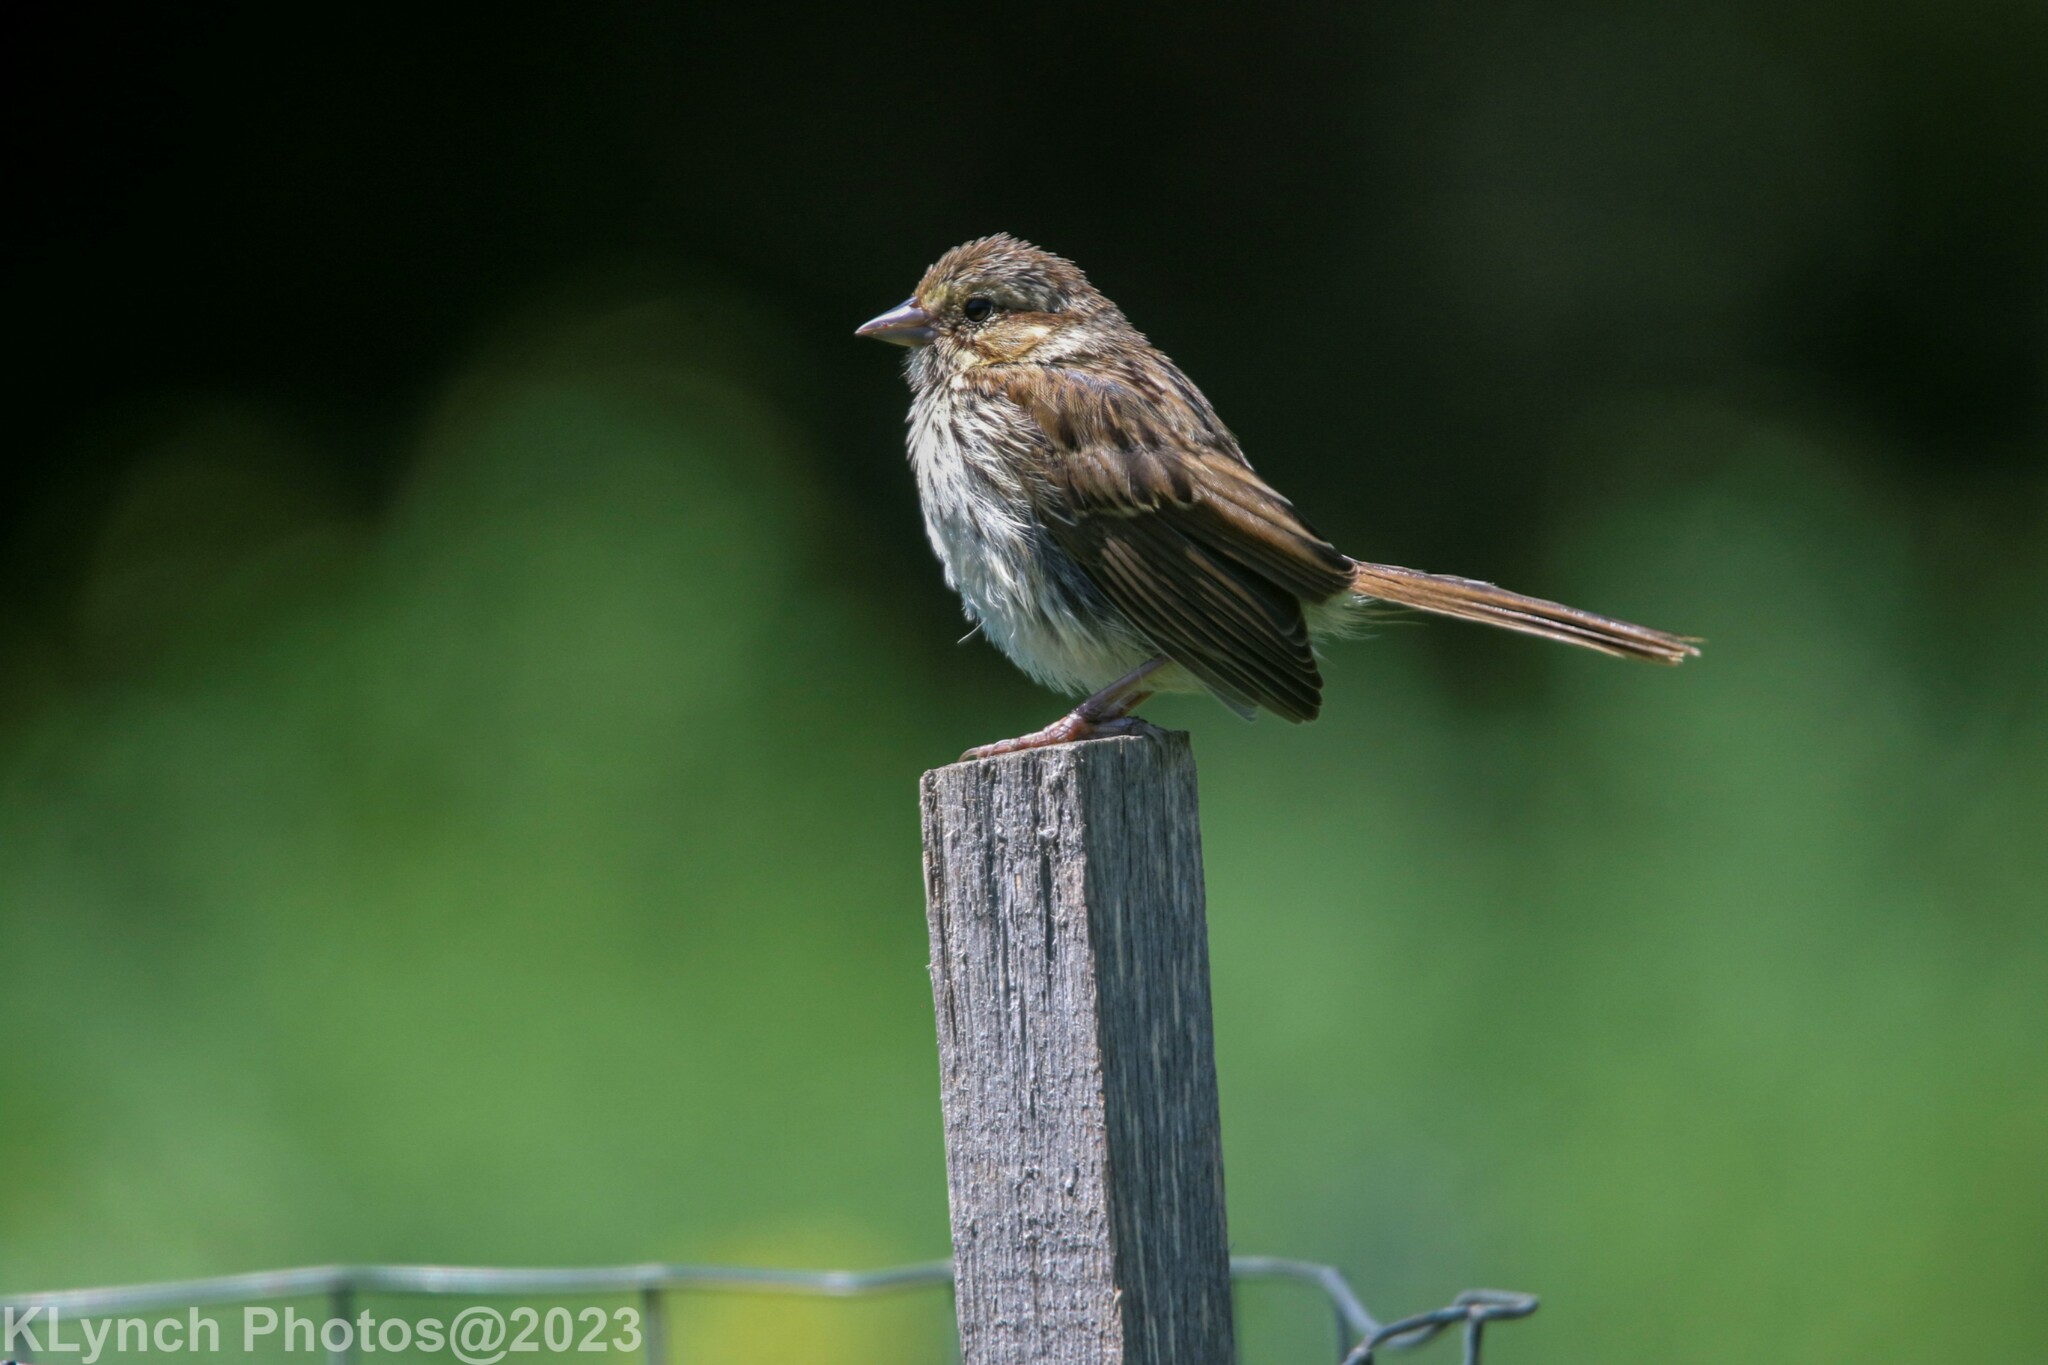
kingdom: Animalia
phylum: Chordata
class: Aves
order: Passeriformes
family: Passerellidae
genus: Melospiza
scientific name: Melospiza melodia
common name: Song sparrow
